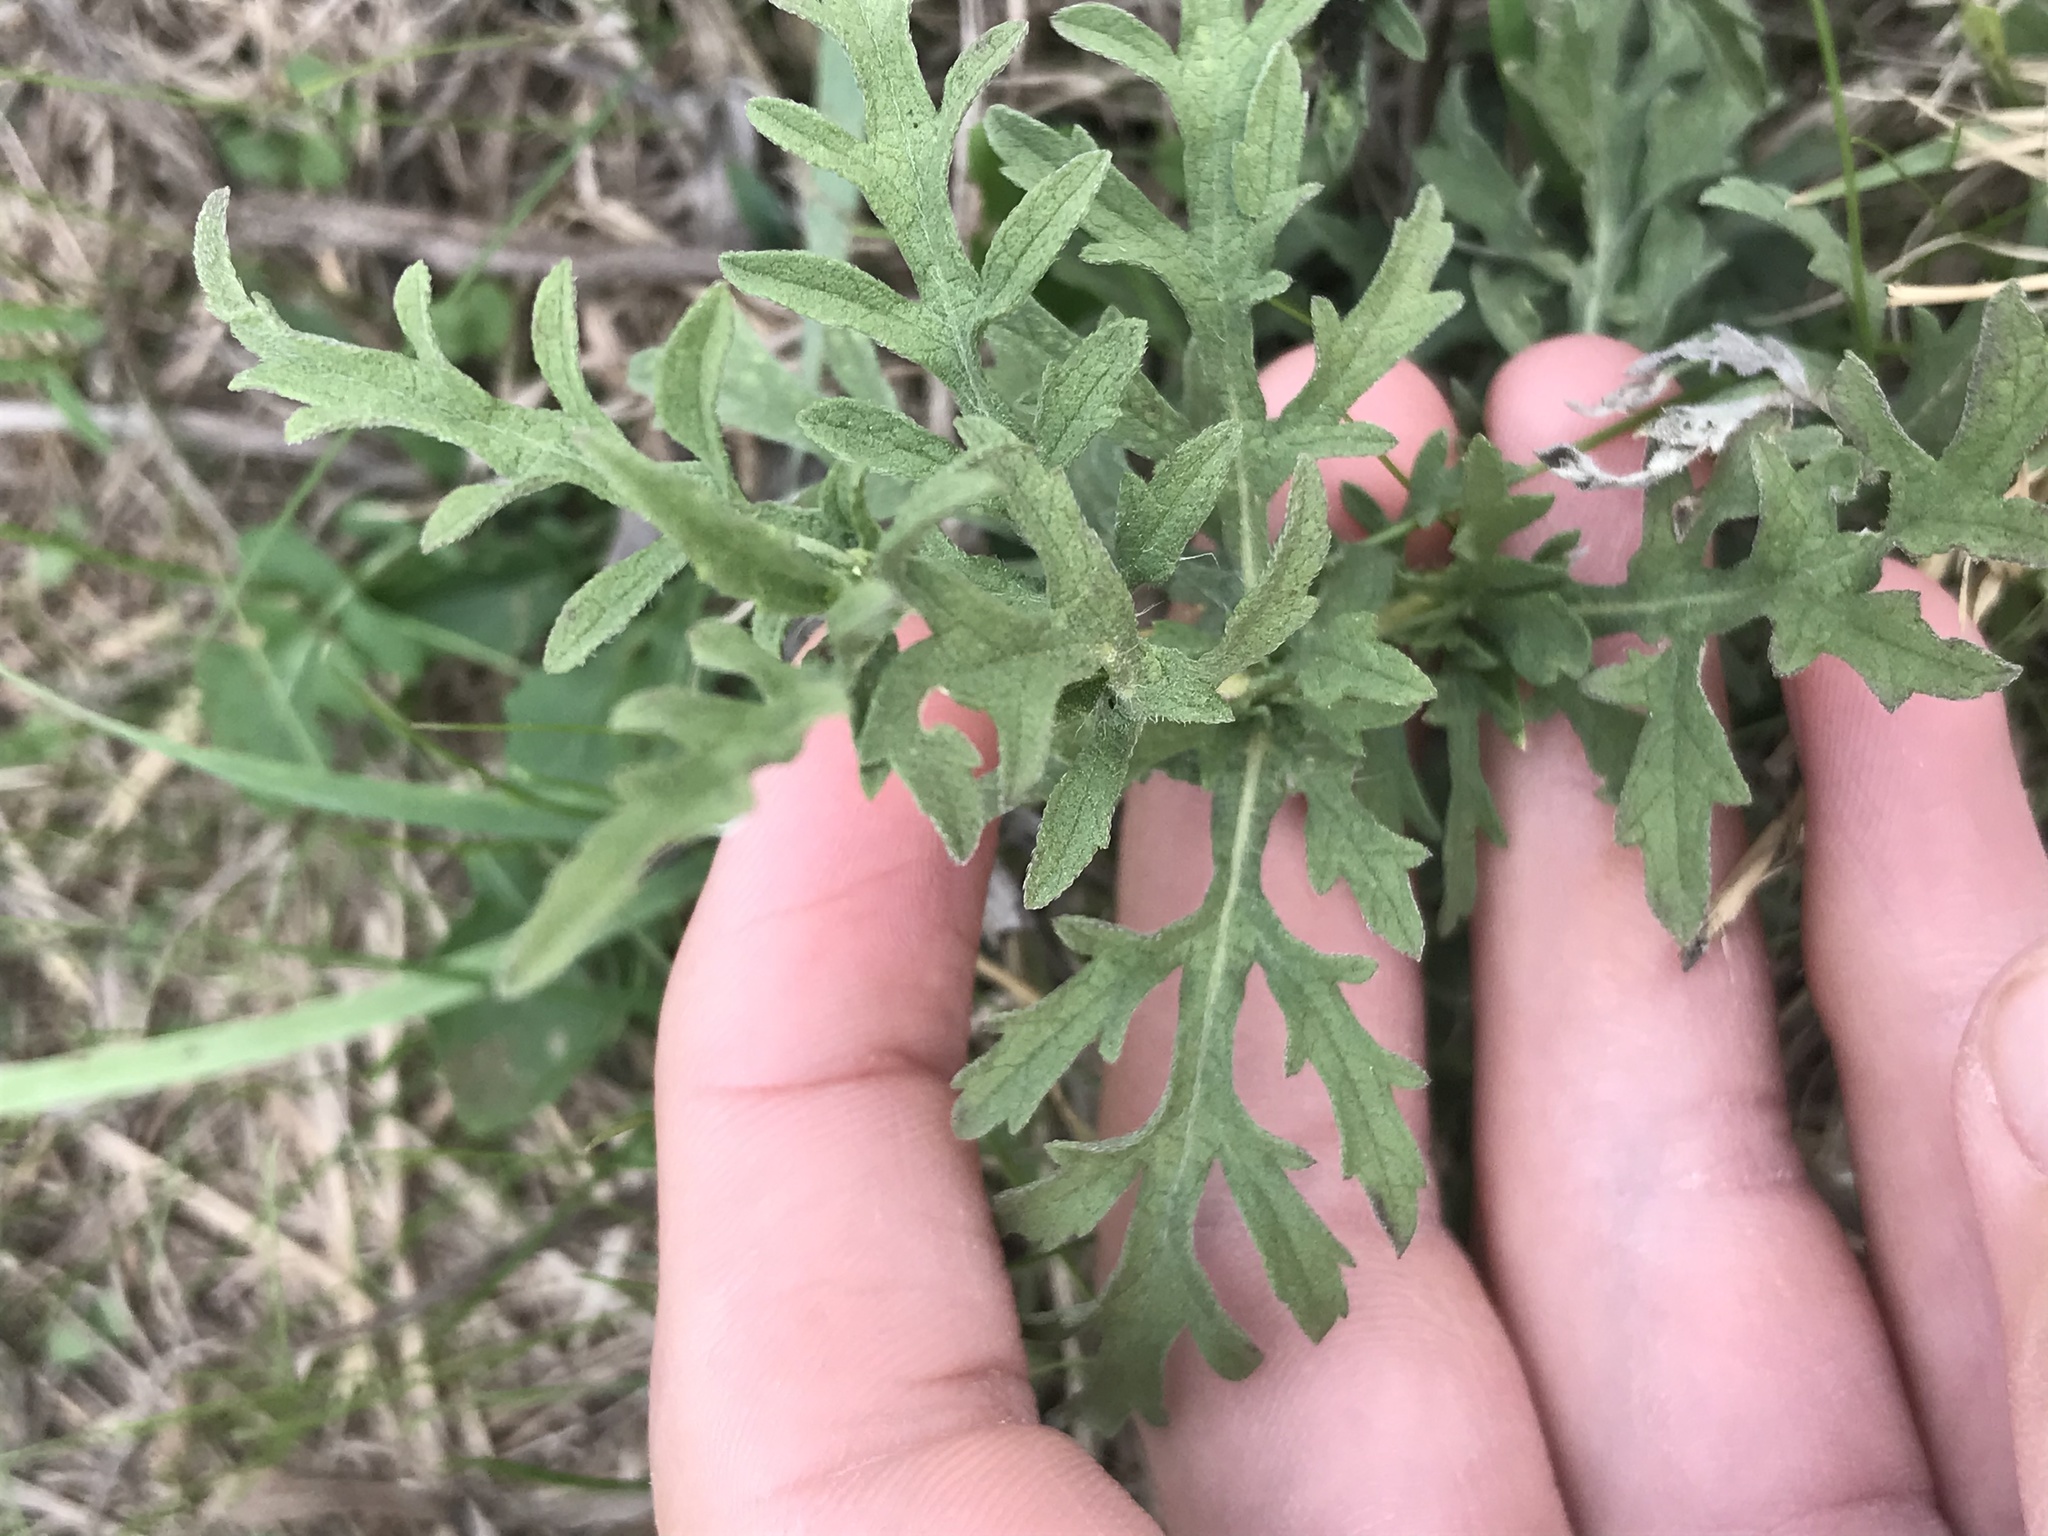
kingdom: Plantae
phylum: Tracheophyta
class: Magnoliopsida
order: Asterales
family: Asteraceae
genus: Ambrosia
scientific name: Ambrosia psilostachya
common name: Perennial ragweed
